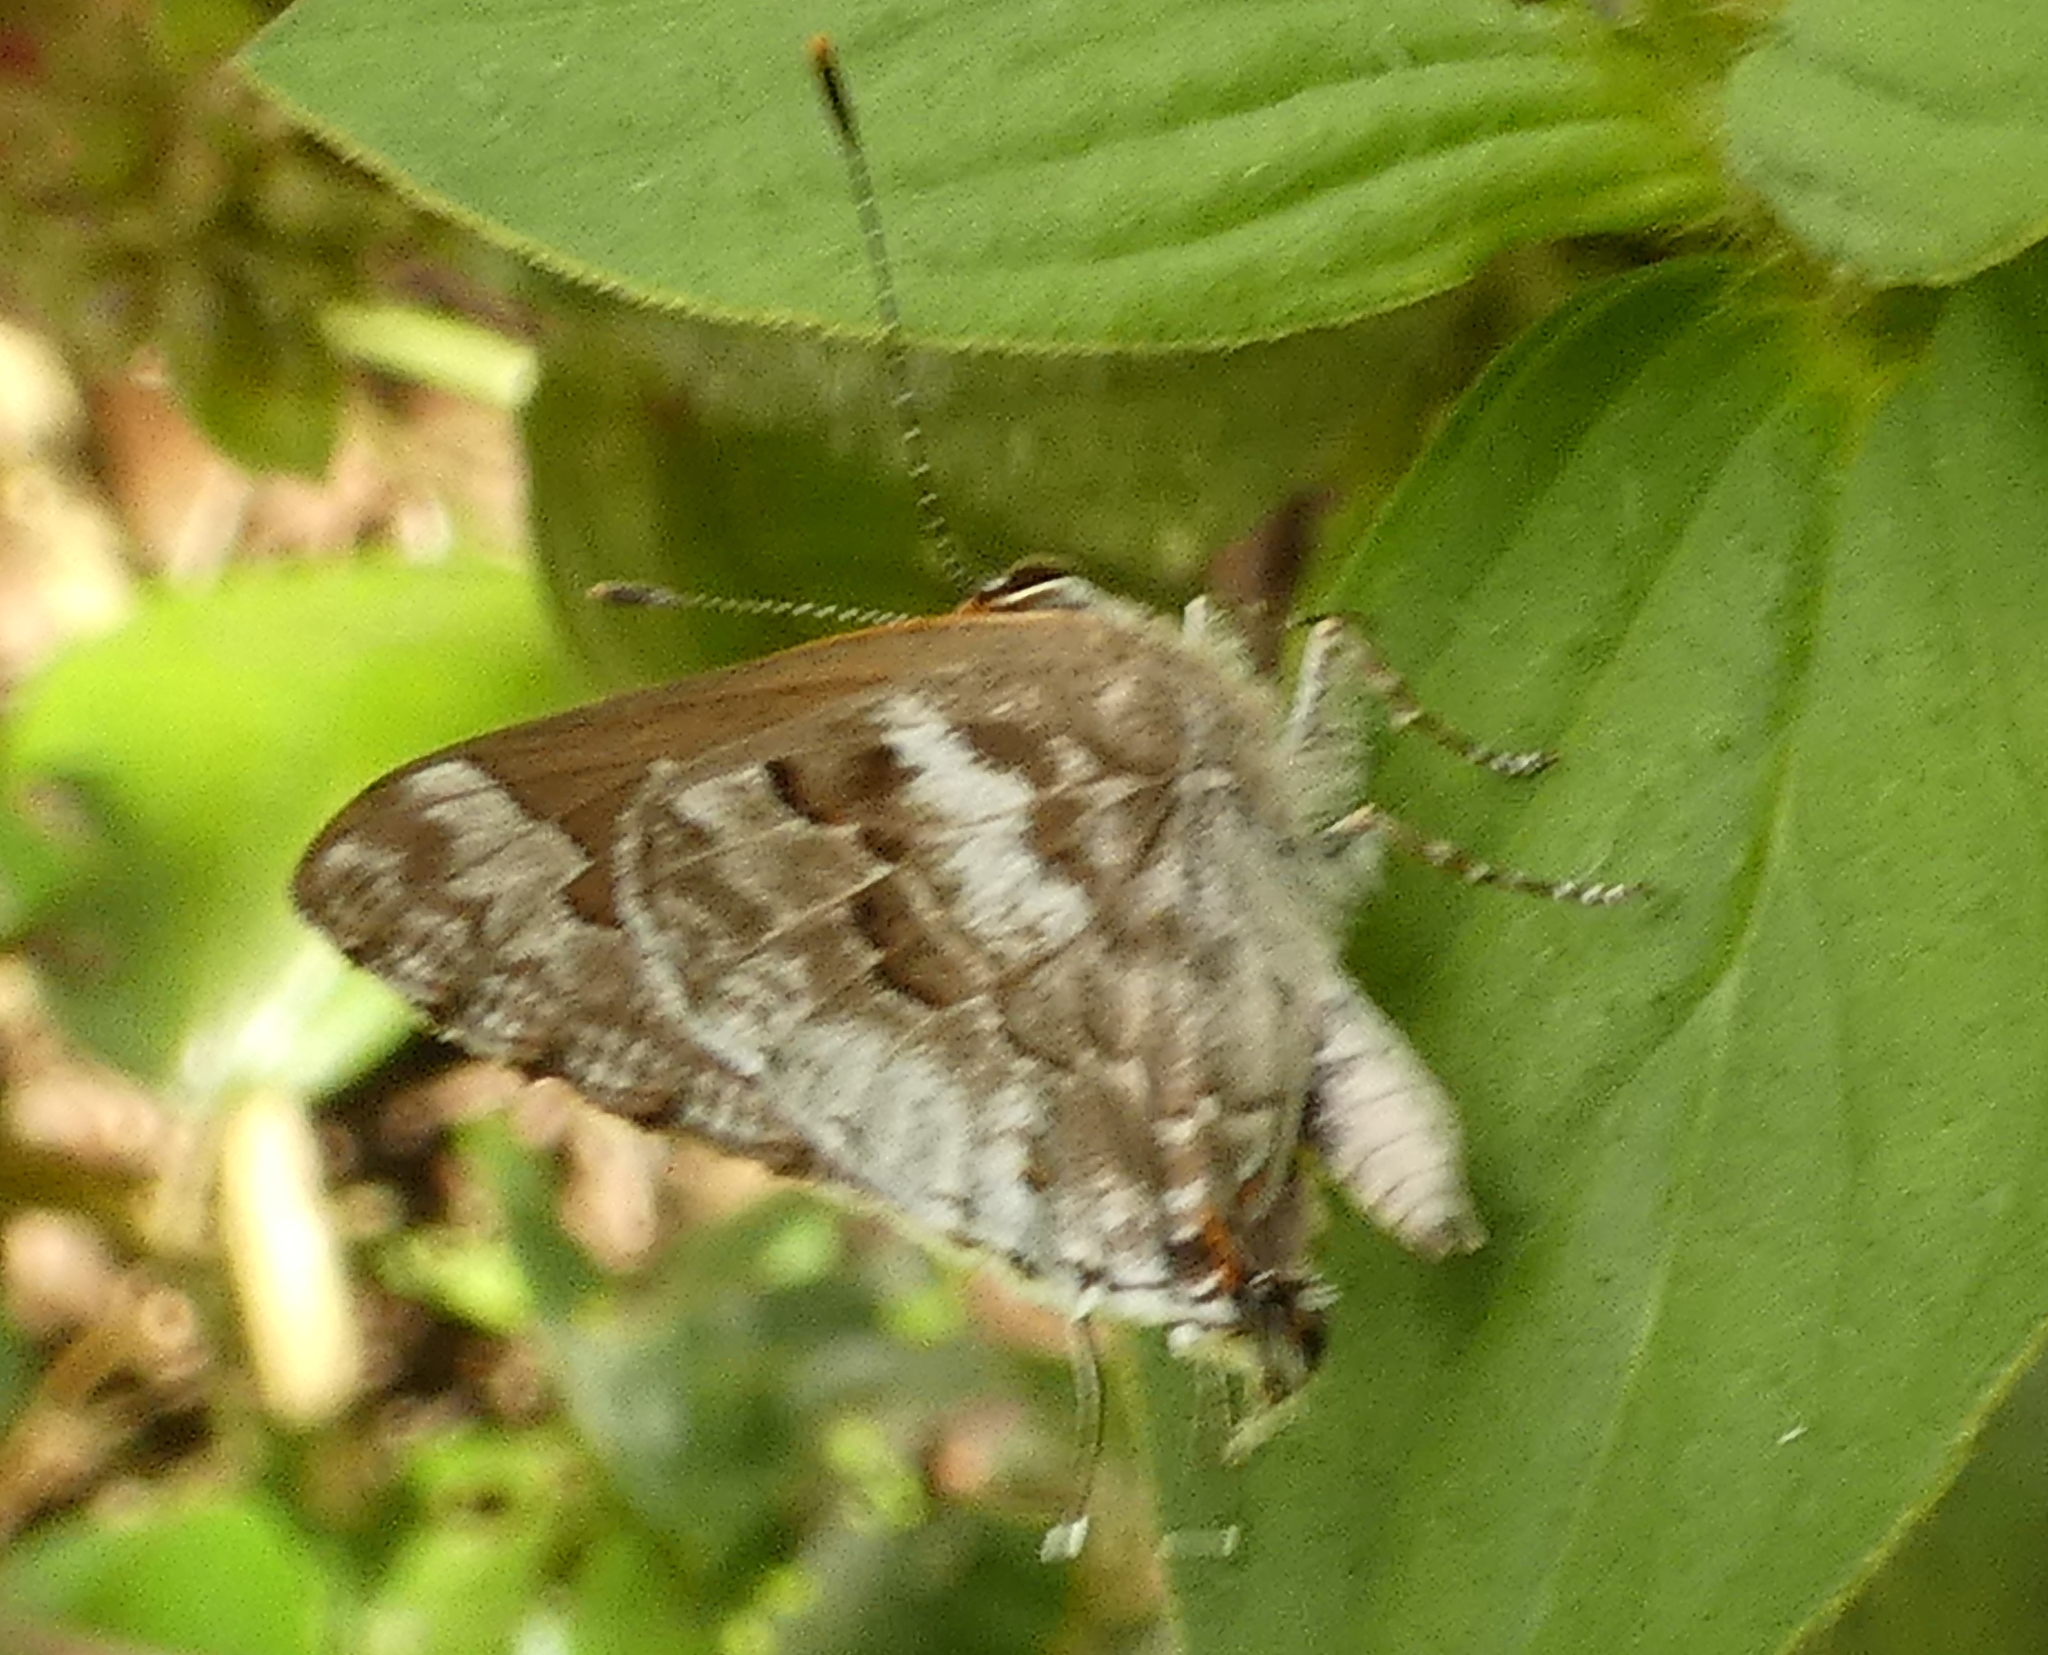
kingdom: Animalia
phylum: Arthropoda
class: Insecta
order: Lepidoptera
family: Lycaenidae
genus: Strymon
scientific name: Strymon mulucha
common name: Mottled scrub-hairstreak
